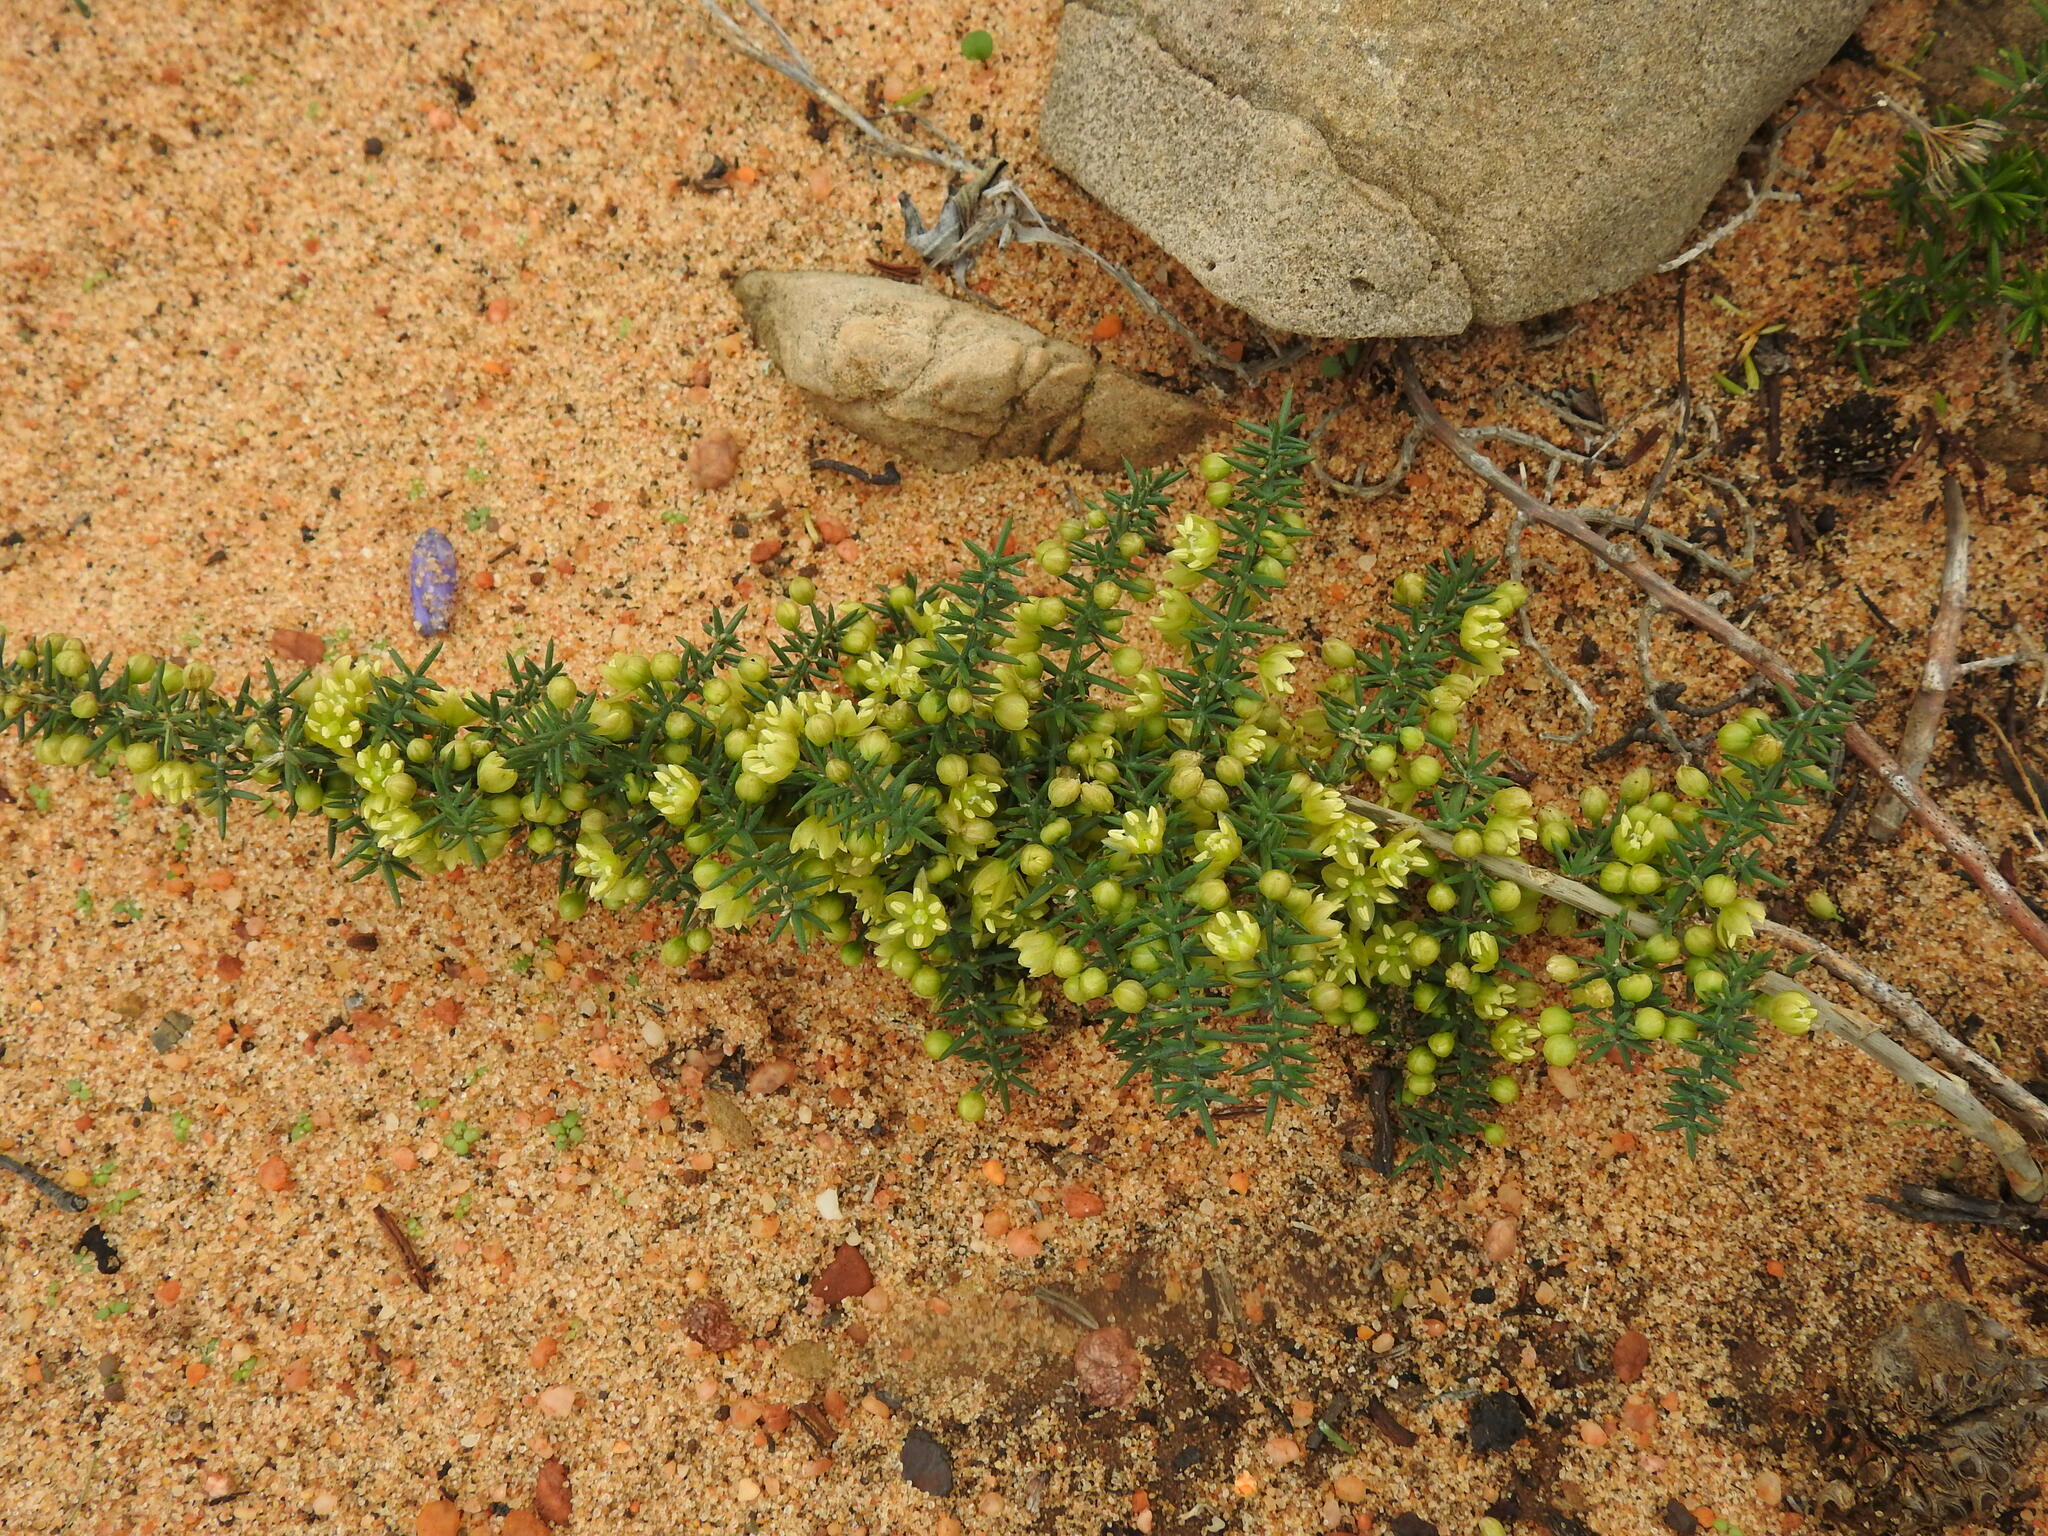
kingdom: Plantae
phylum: Tracheophyta
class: Liliopsida
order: Asparagales
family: Asparagaceae
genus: Asparagus
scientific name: Asparagus aphyllus
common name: Mediterranean asparagus
